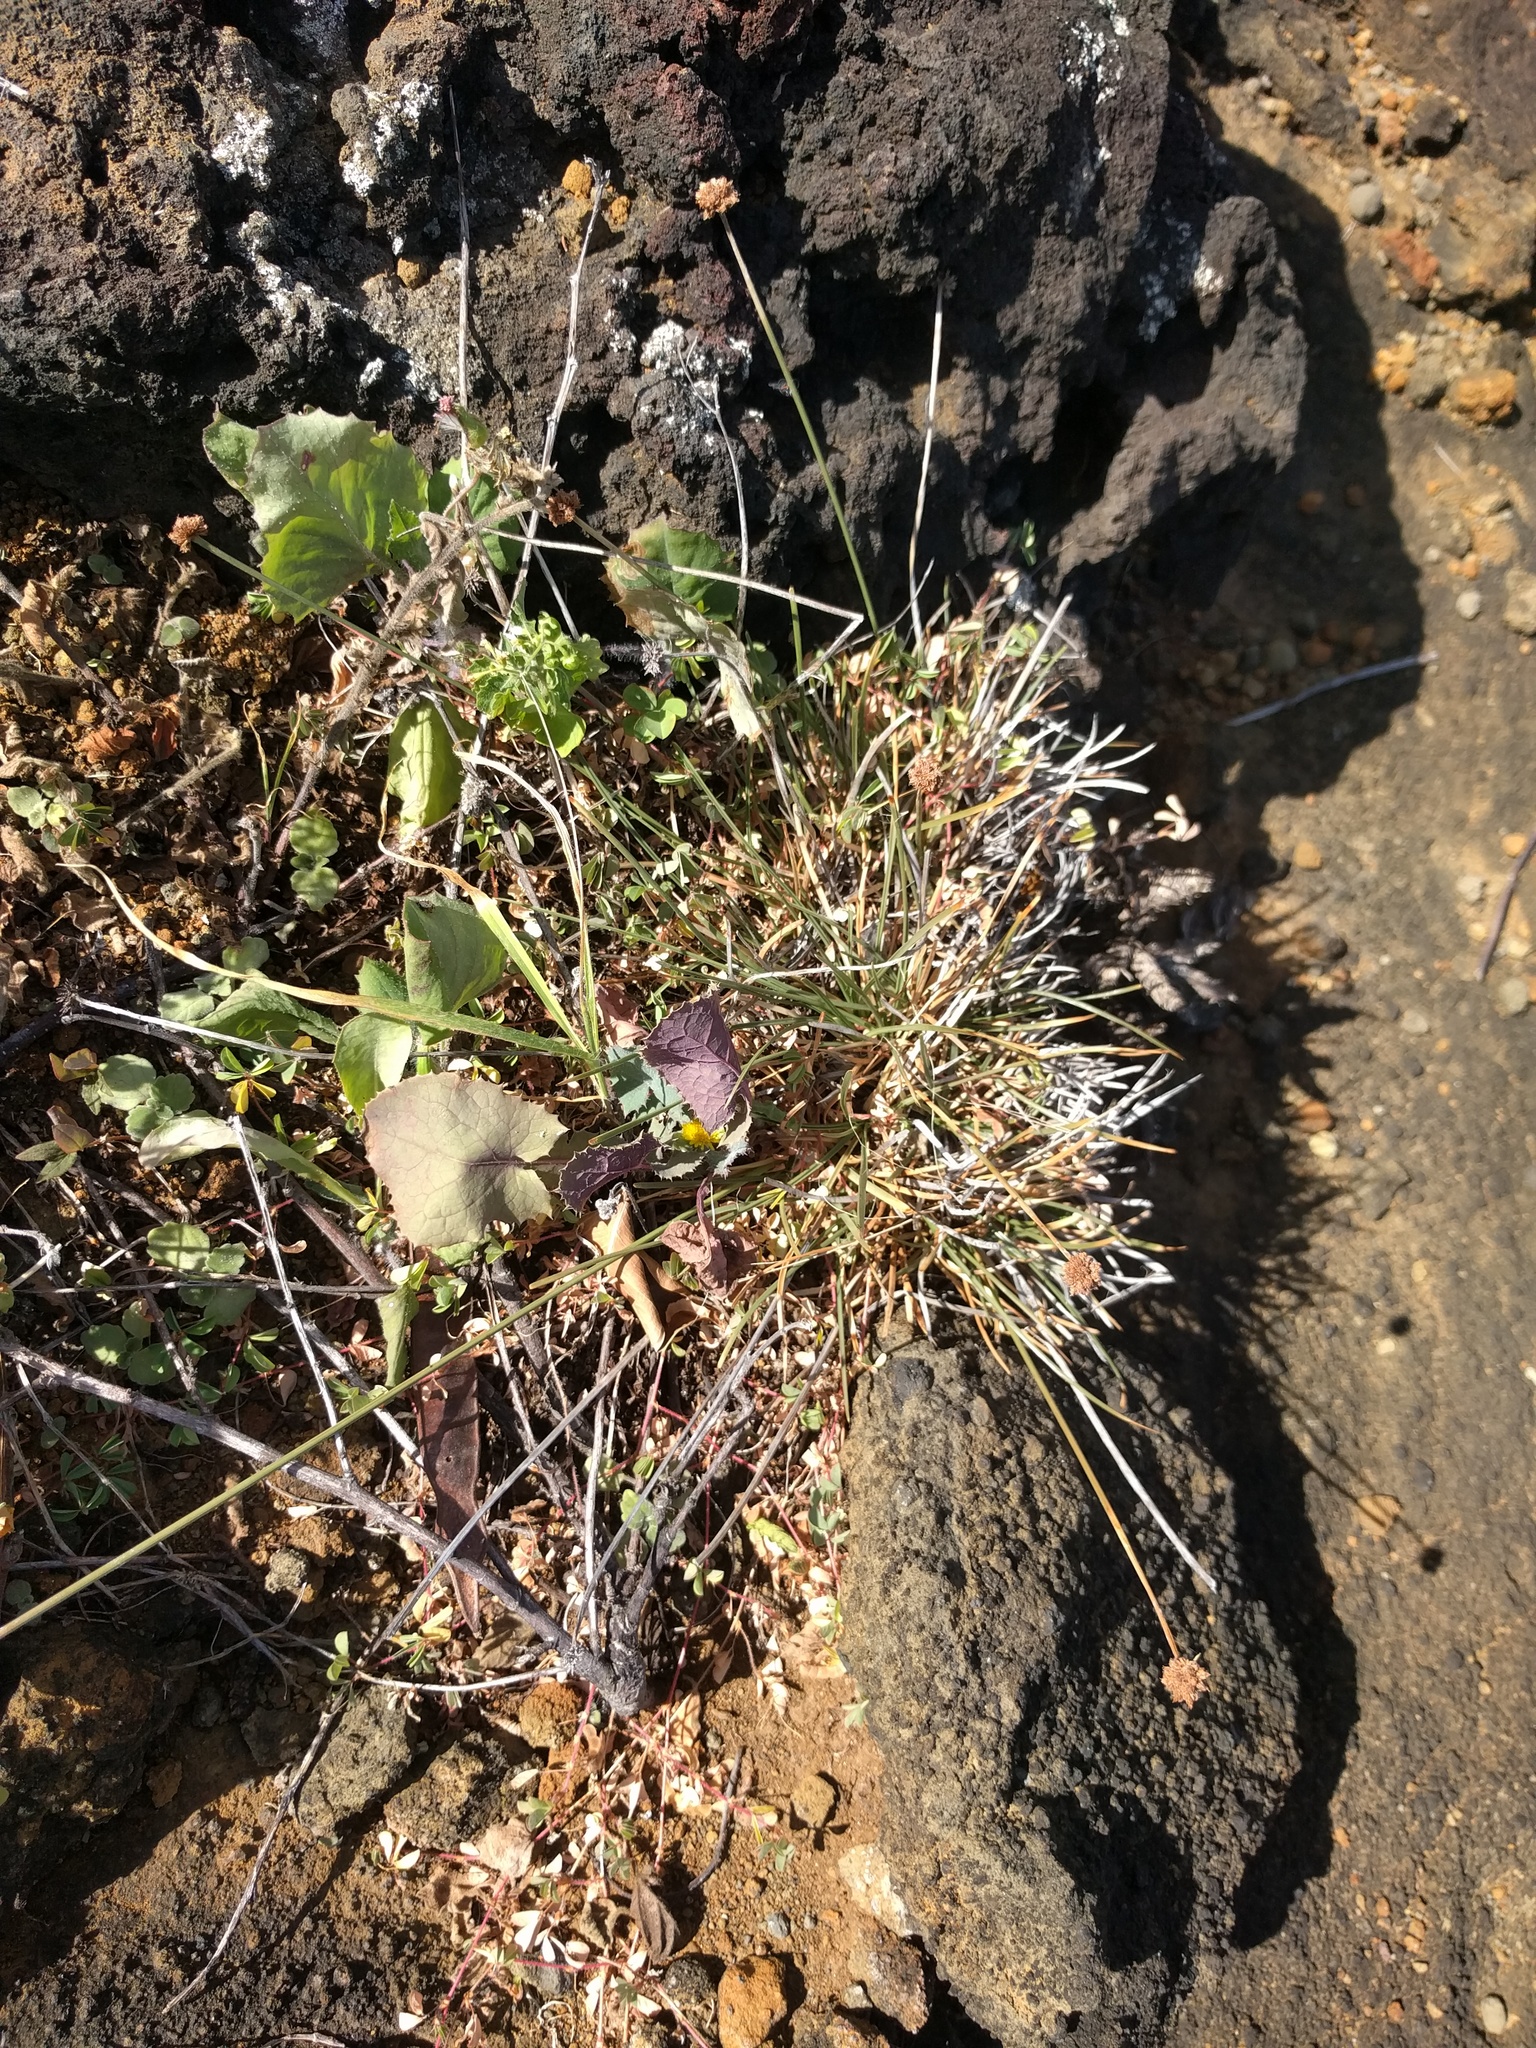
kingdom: Plantae
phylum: Tracheophyta
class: Magnoliopsida
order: Lamiales
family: Lamiaceae
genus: Coleus
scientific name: Coleus australis
